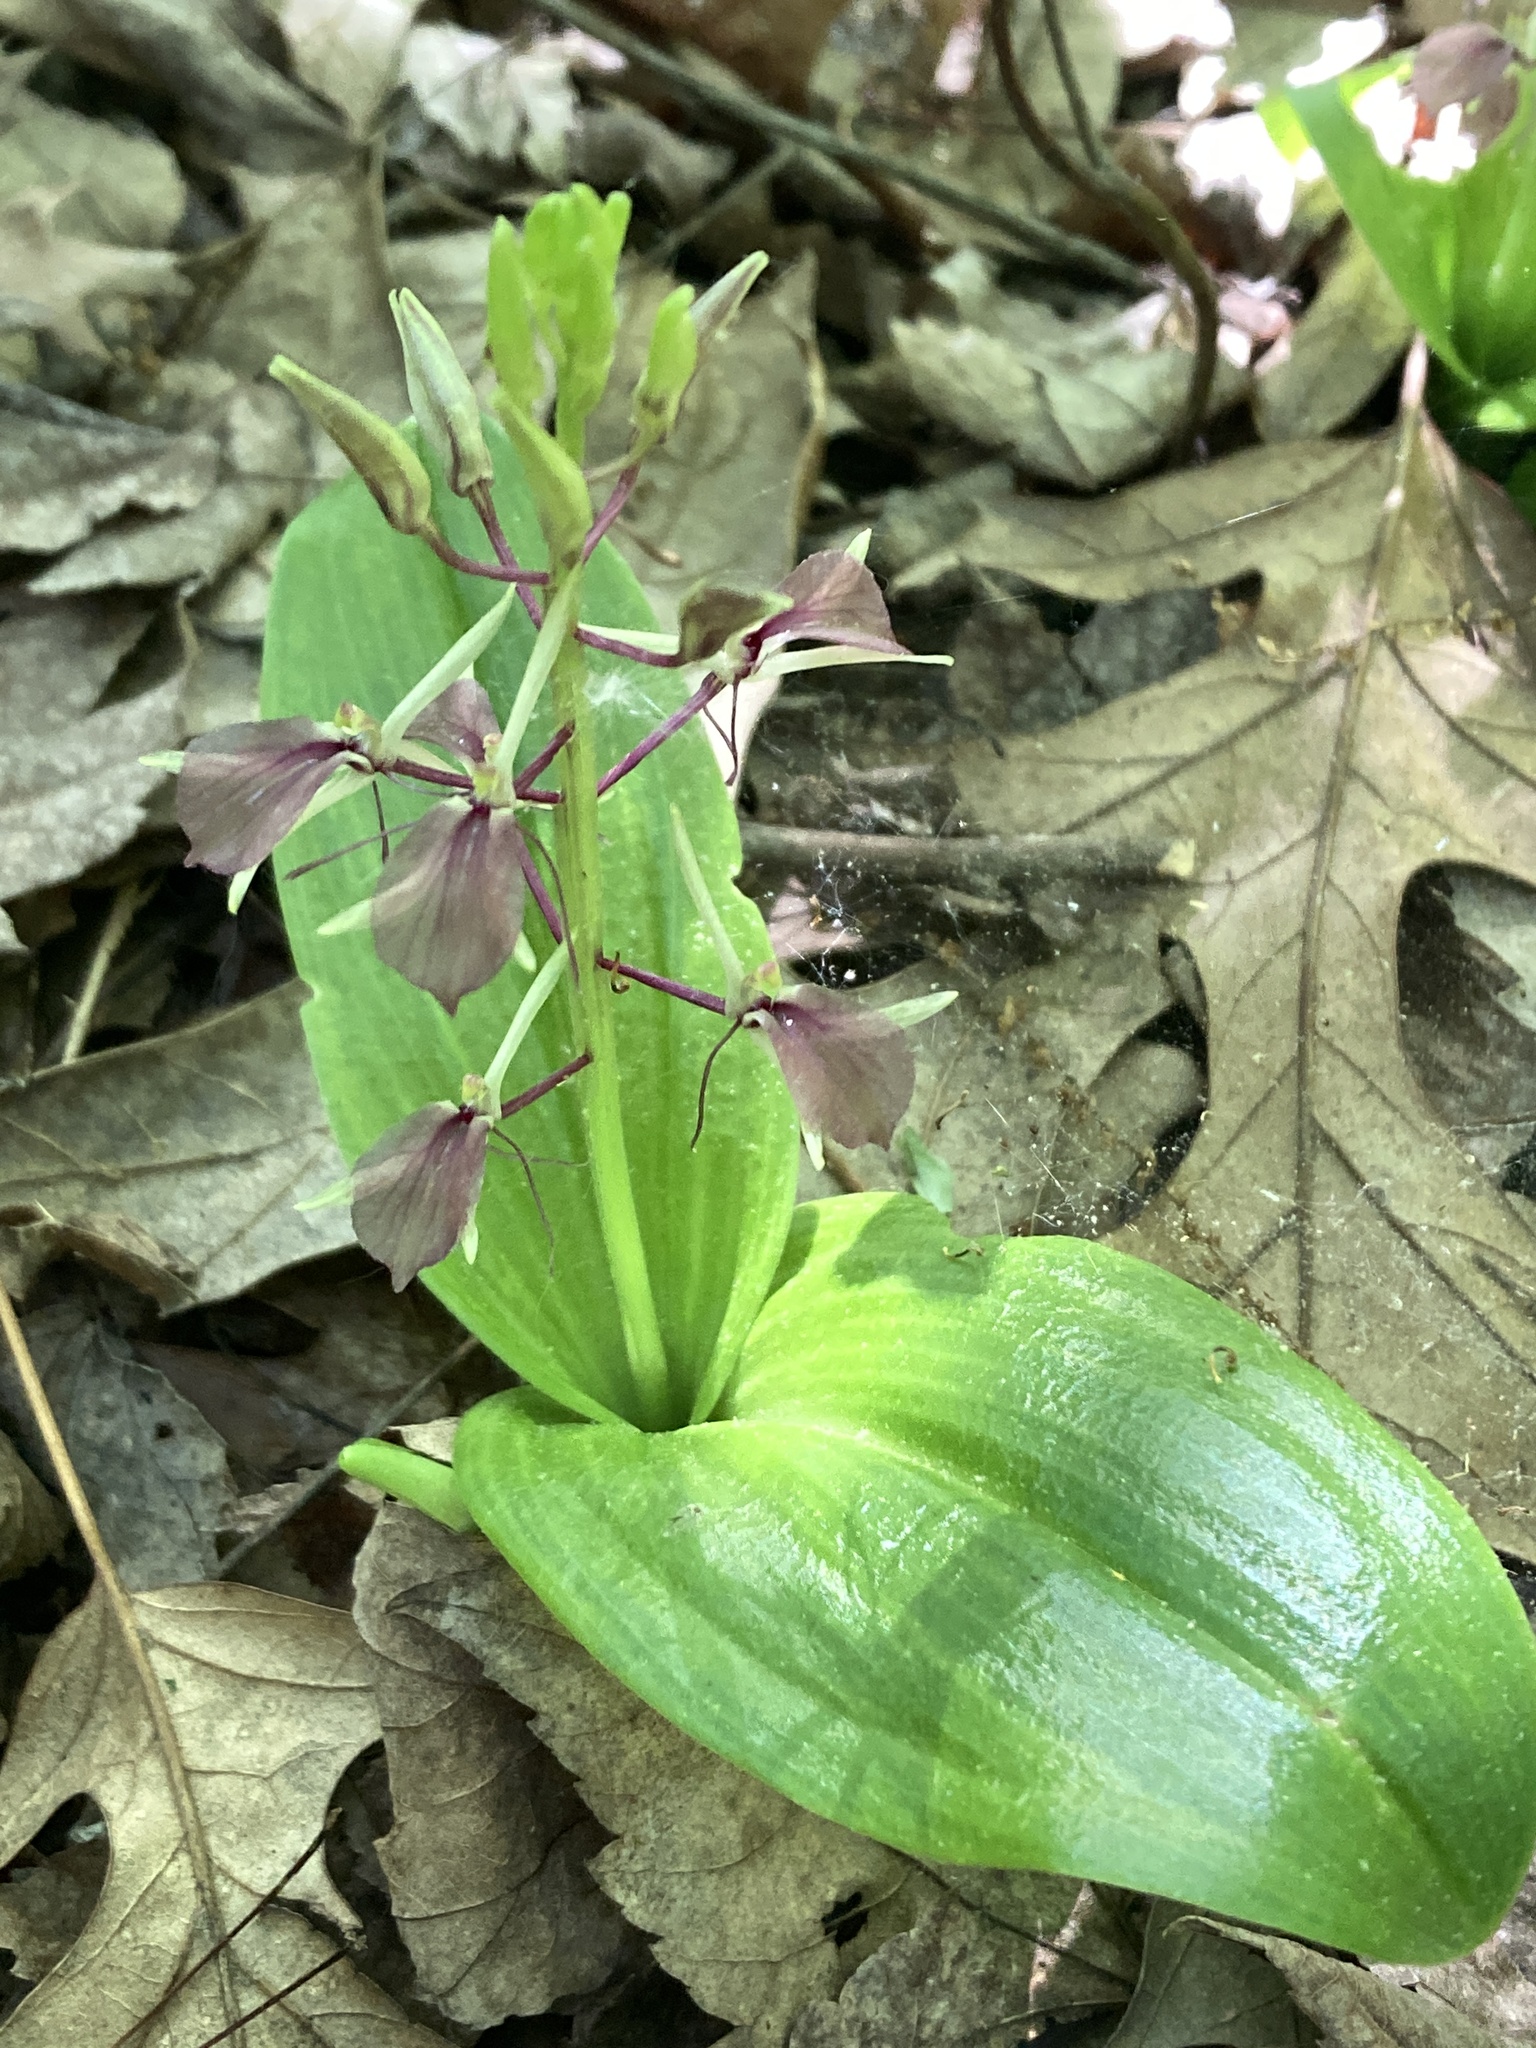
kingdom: Plantae
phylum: Tracheophyta
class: Liliopsida
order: Asparagales
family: Orchidaceae
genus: Liparis
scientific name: Liparis liliifolia
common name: Brown wide-lip orchid
